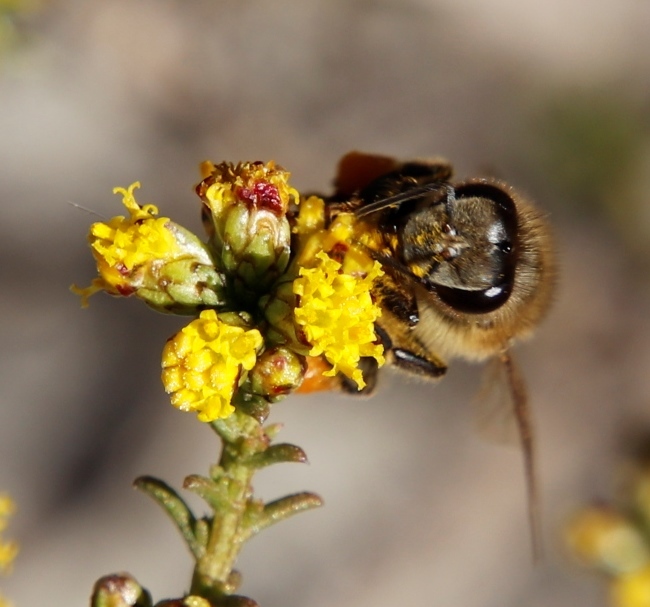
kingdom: Animalia
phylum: Arthropoda
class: Insecta
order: Hymenoptera
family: Apidae
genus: Apis
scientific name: Apis mellifera
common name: Honey bee
